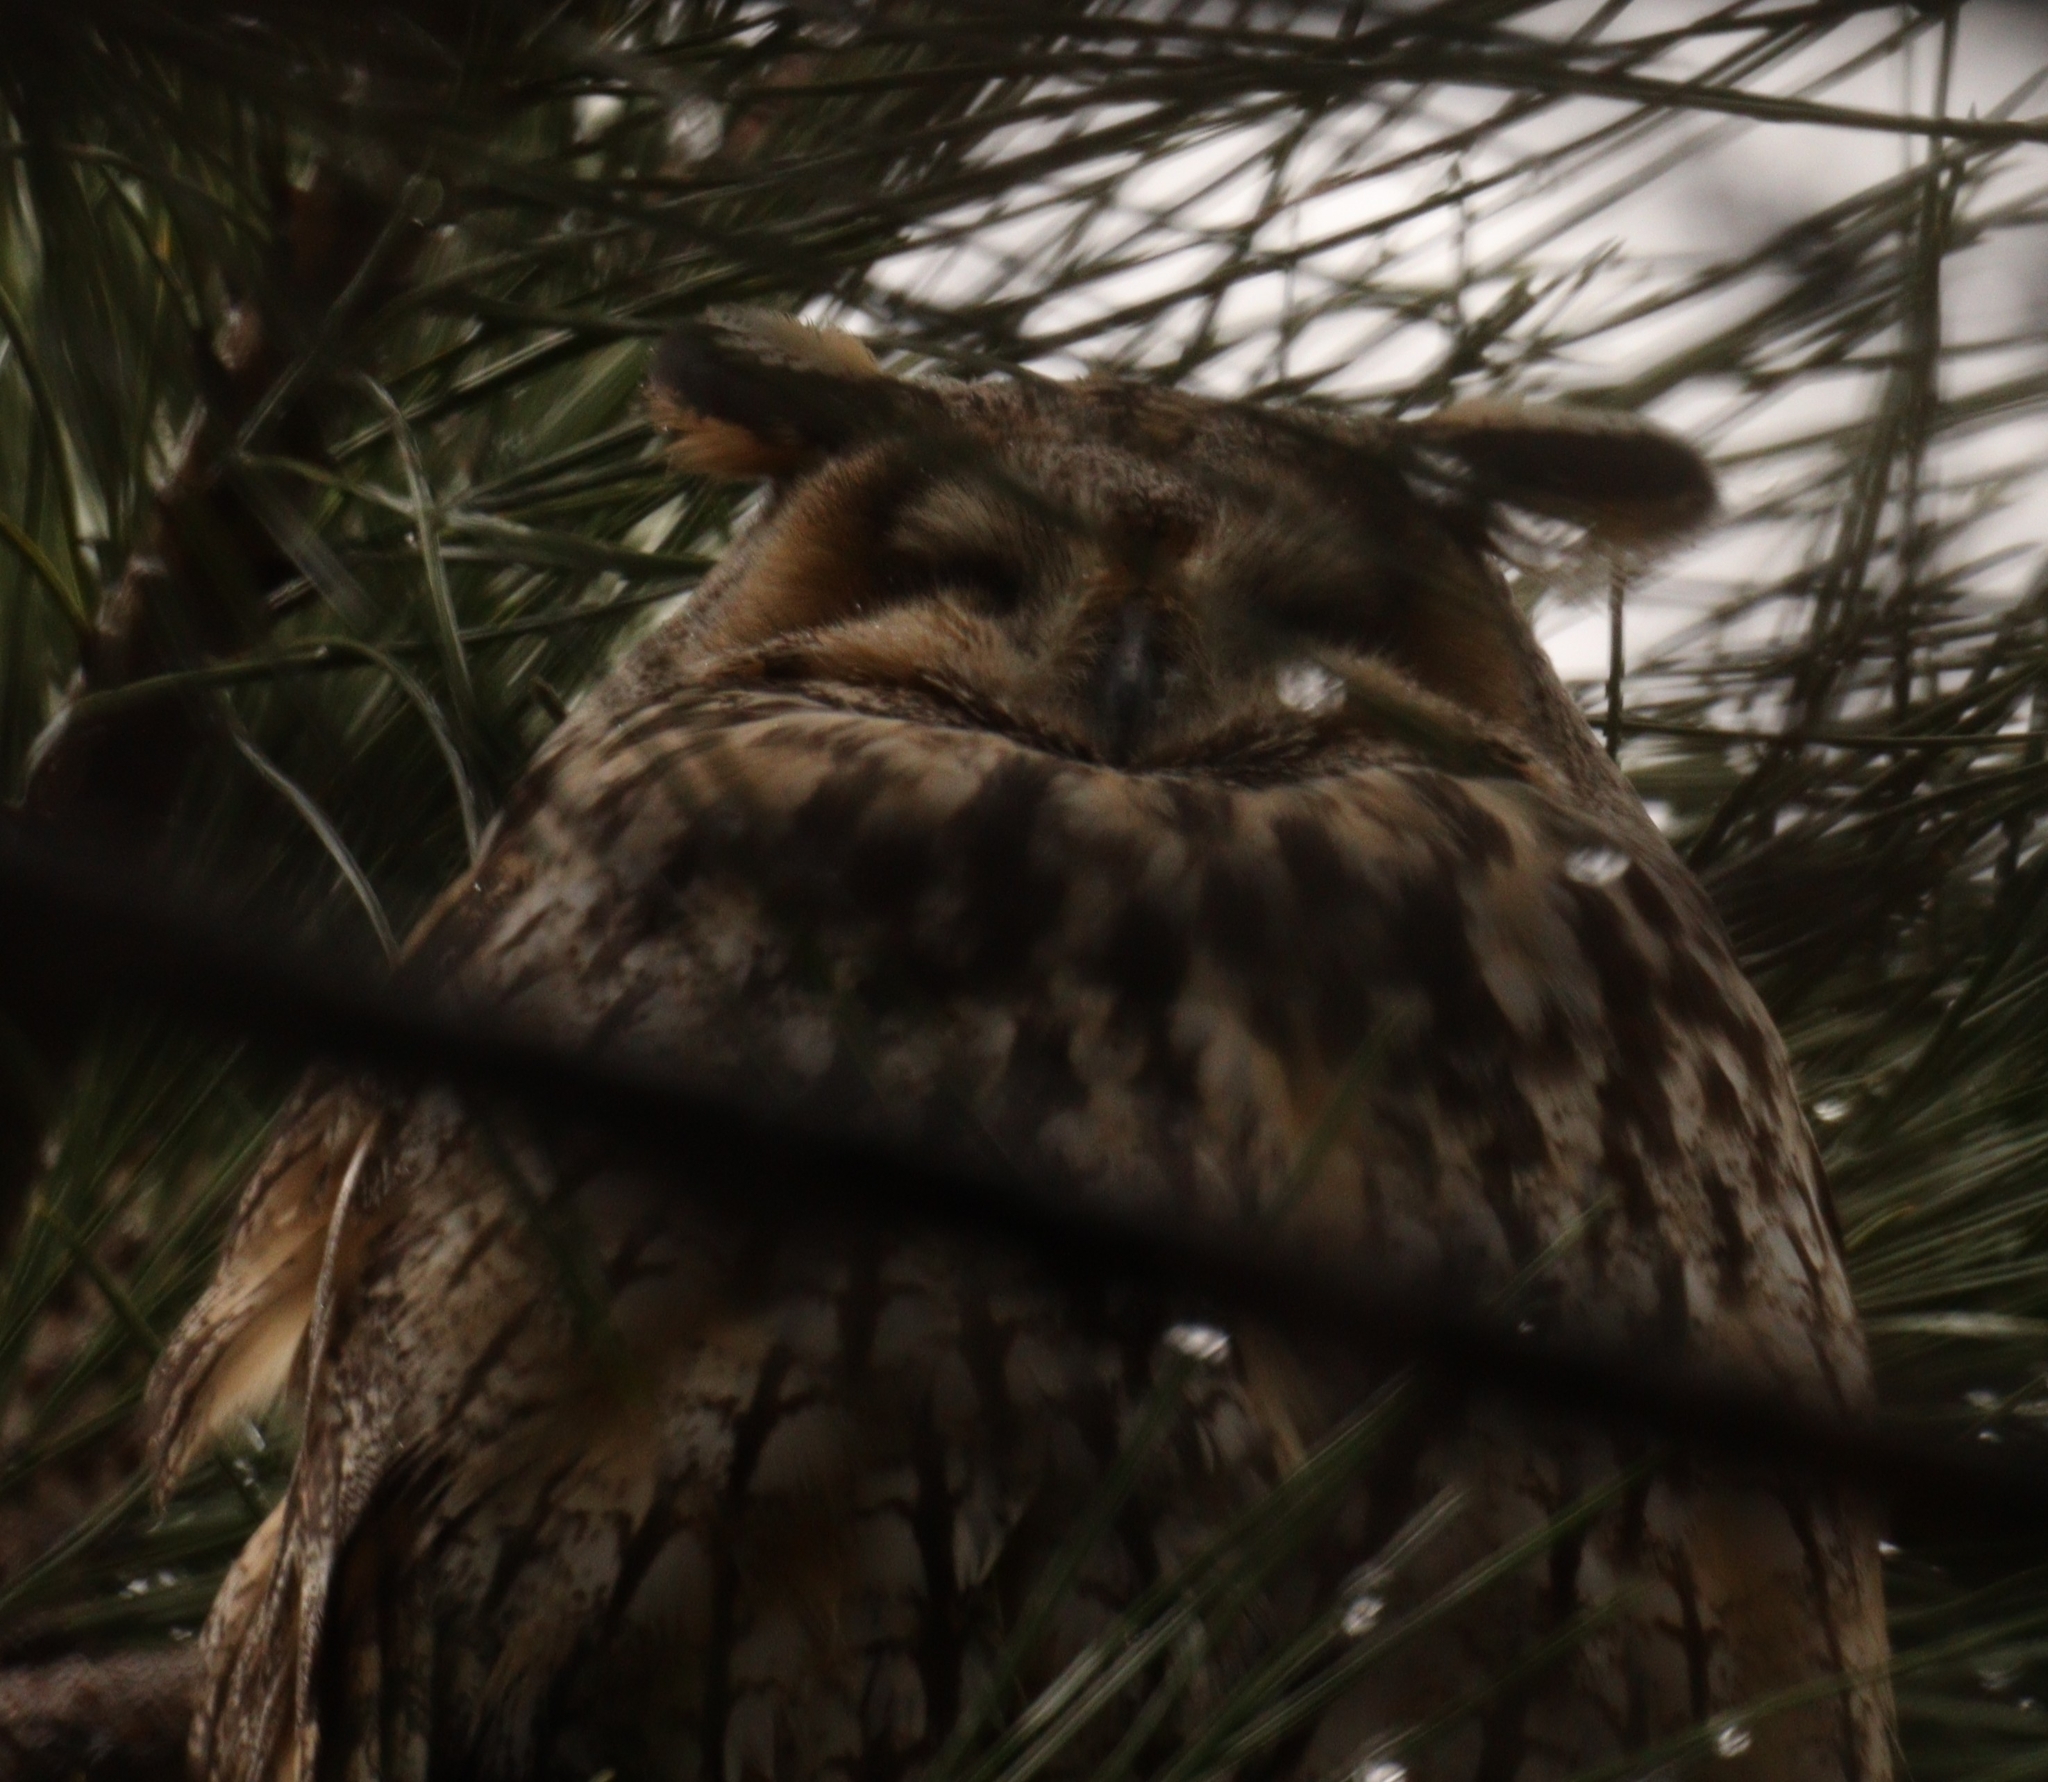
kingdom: Animalia
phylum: Chordata
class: Aves
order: Strigiformes
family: Strigidae
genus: Asio
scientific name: Asio otus
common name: Long-eared owl
